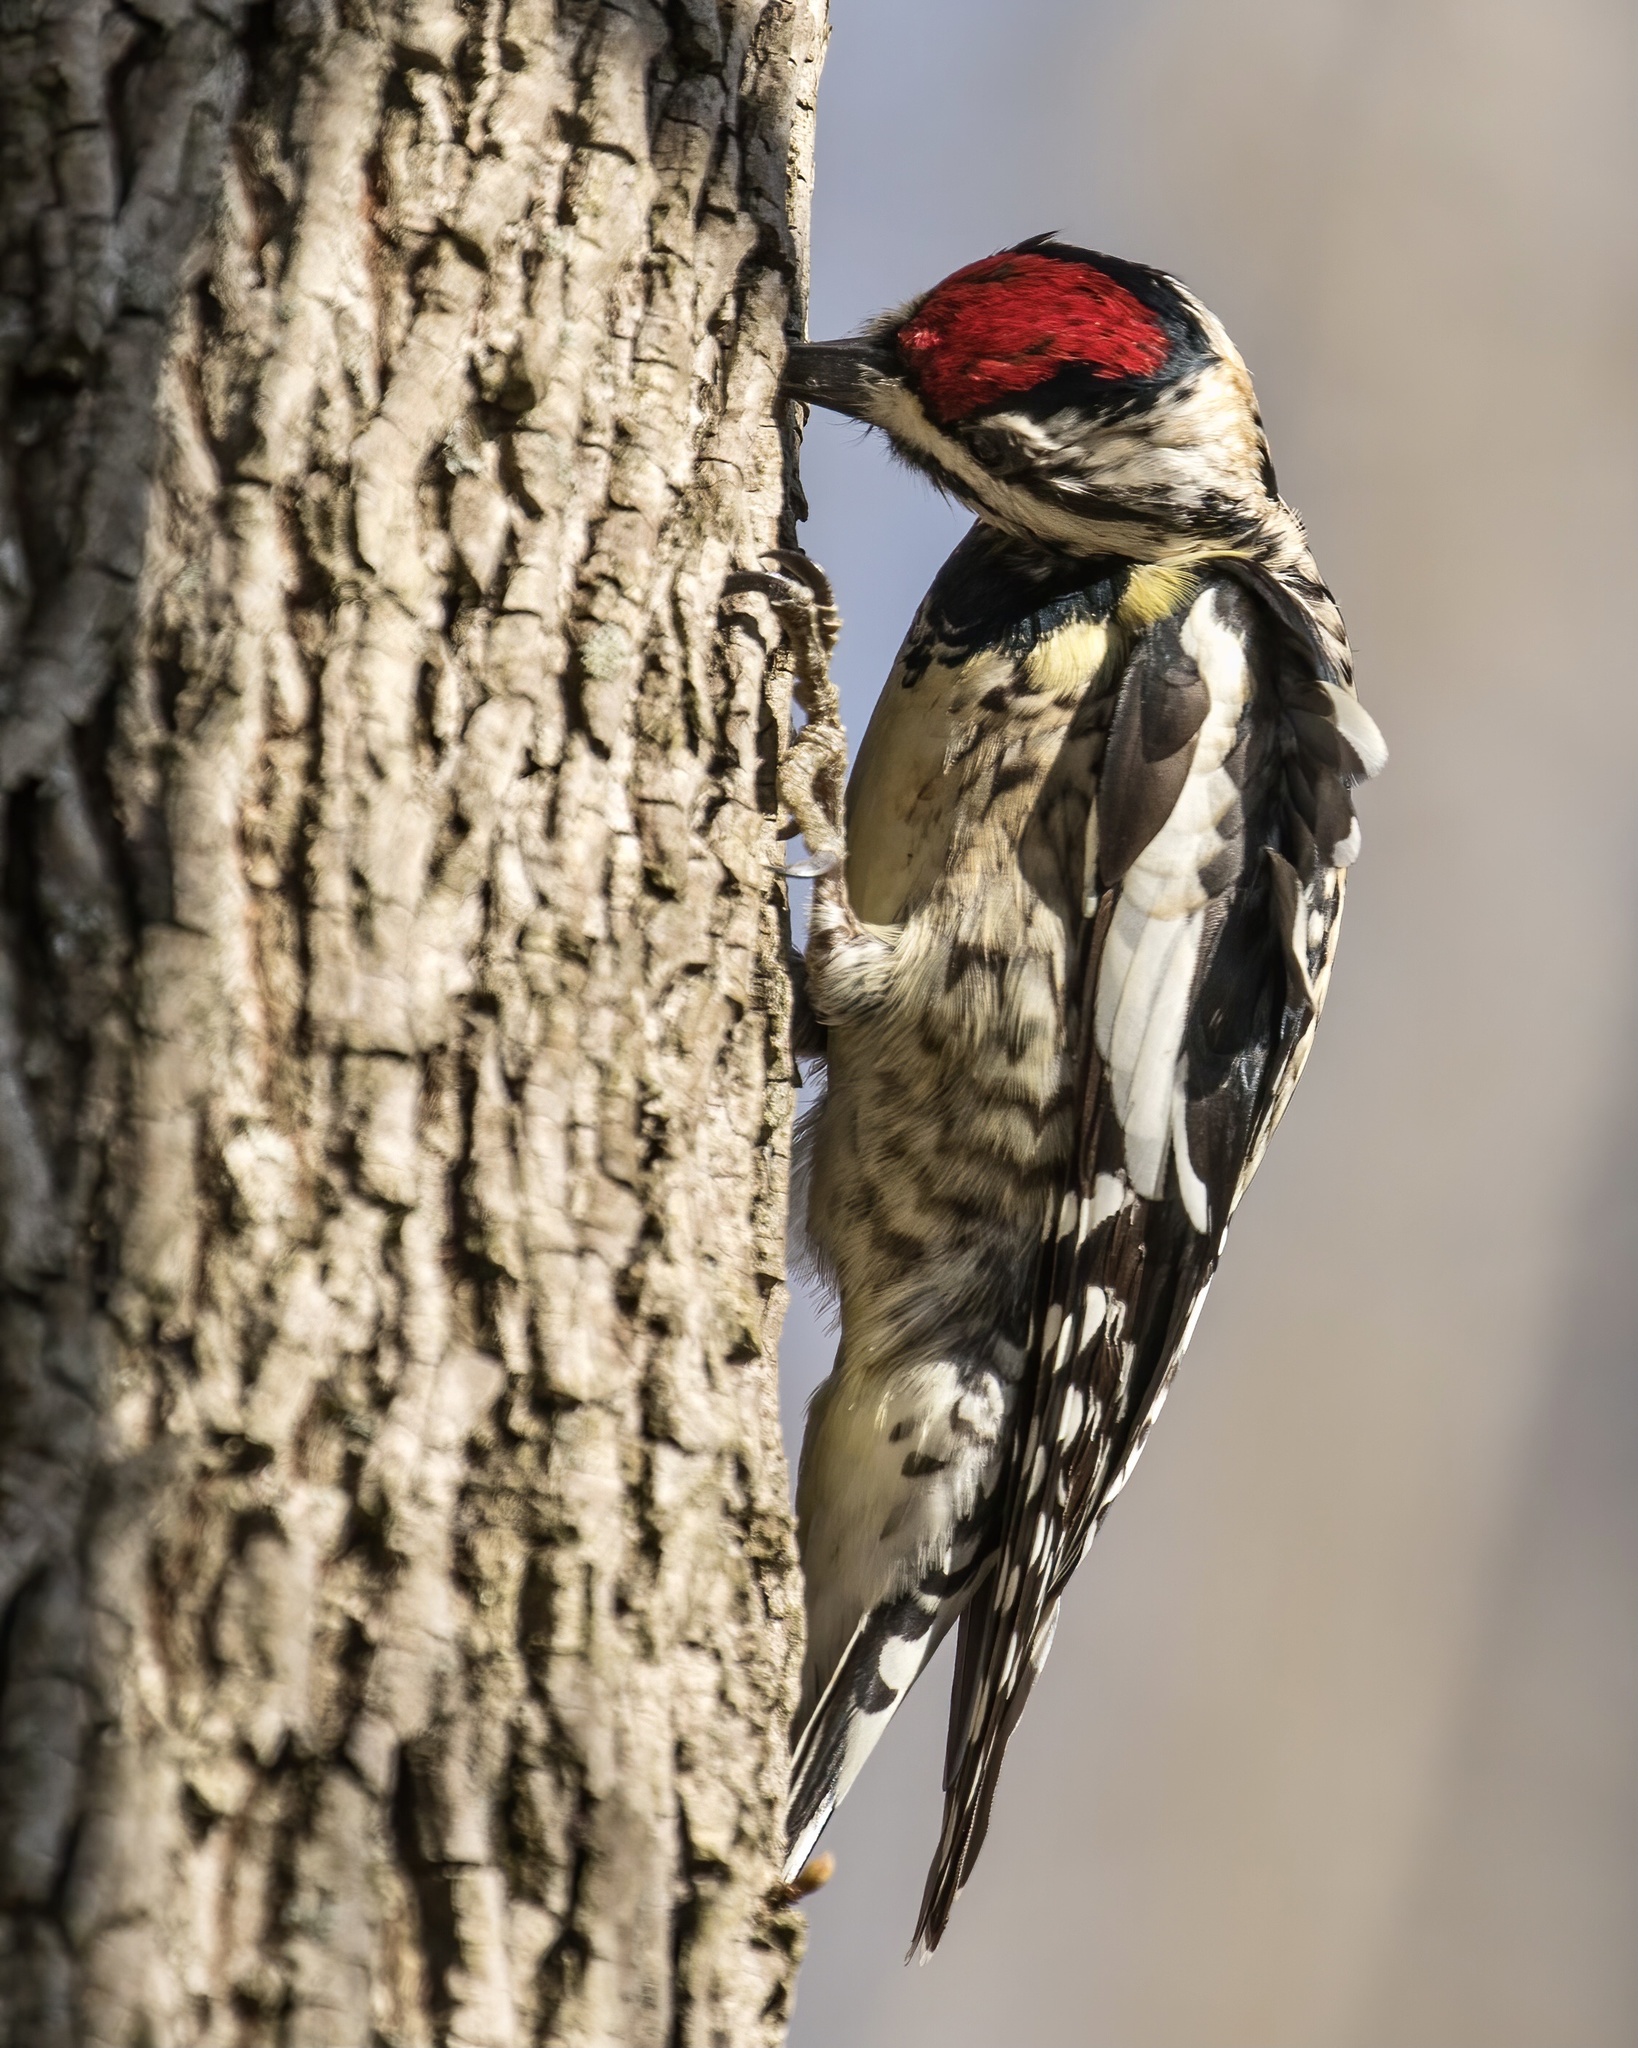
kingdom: Animalia
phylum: Chordata
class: Aves
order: Piciformes
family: Picidae
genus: Sphyrapicus
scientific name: Sphyrapicus varius
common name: Yellow-bellied sapsucker
